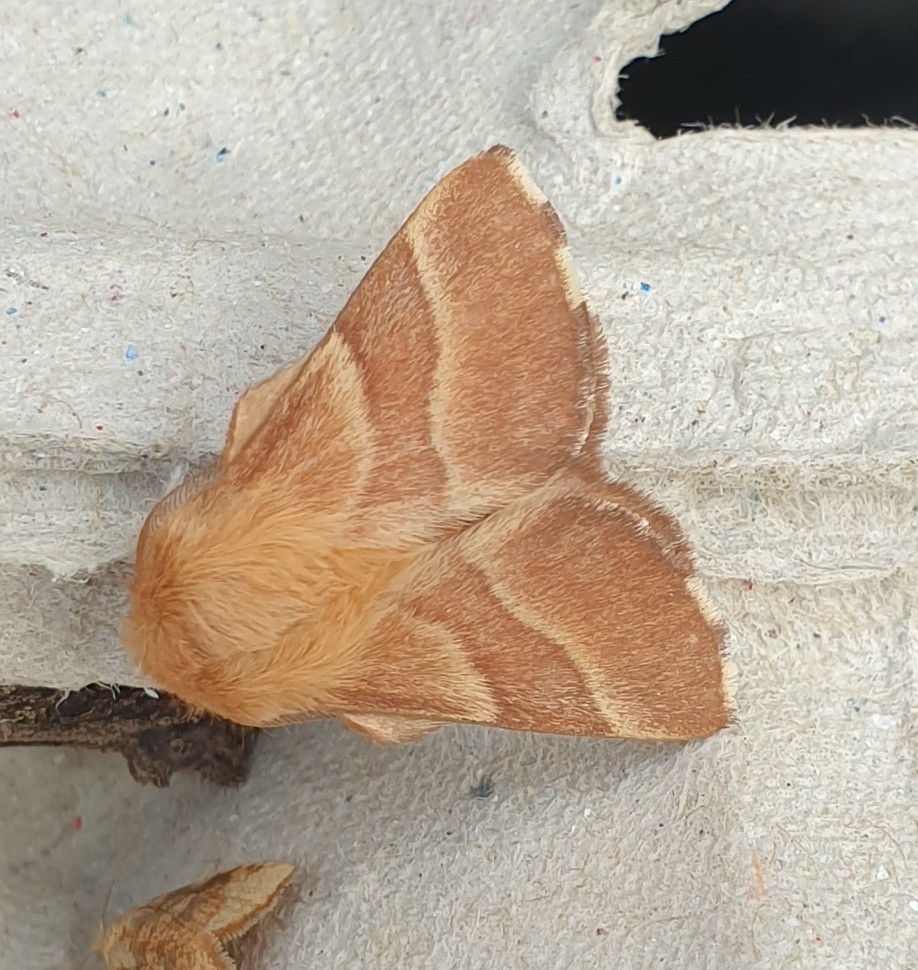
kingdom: Animalia
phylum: Arthropoda
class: Insecta
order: Lepidoptera
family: Lasiocampidae
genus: Malacosoma
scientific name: Malacosoma neustria
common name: The lackey
